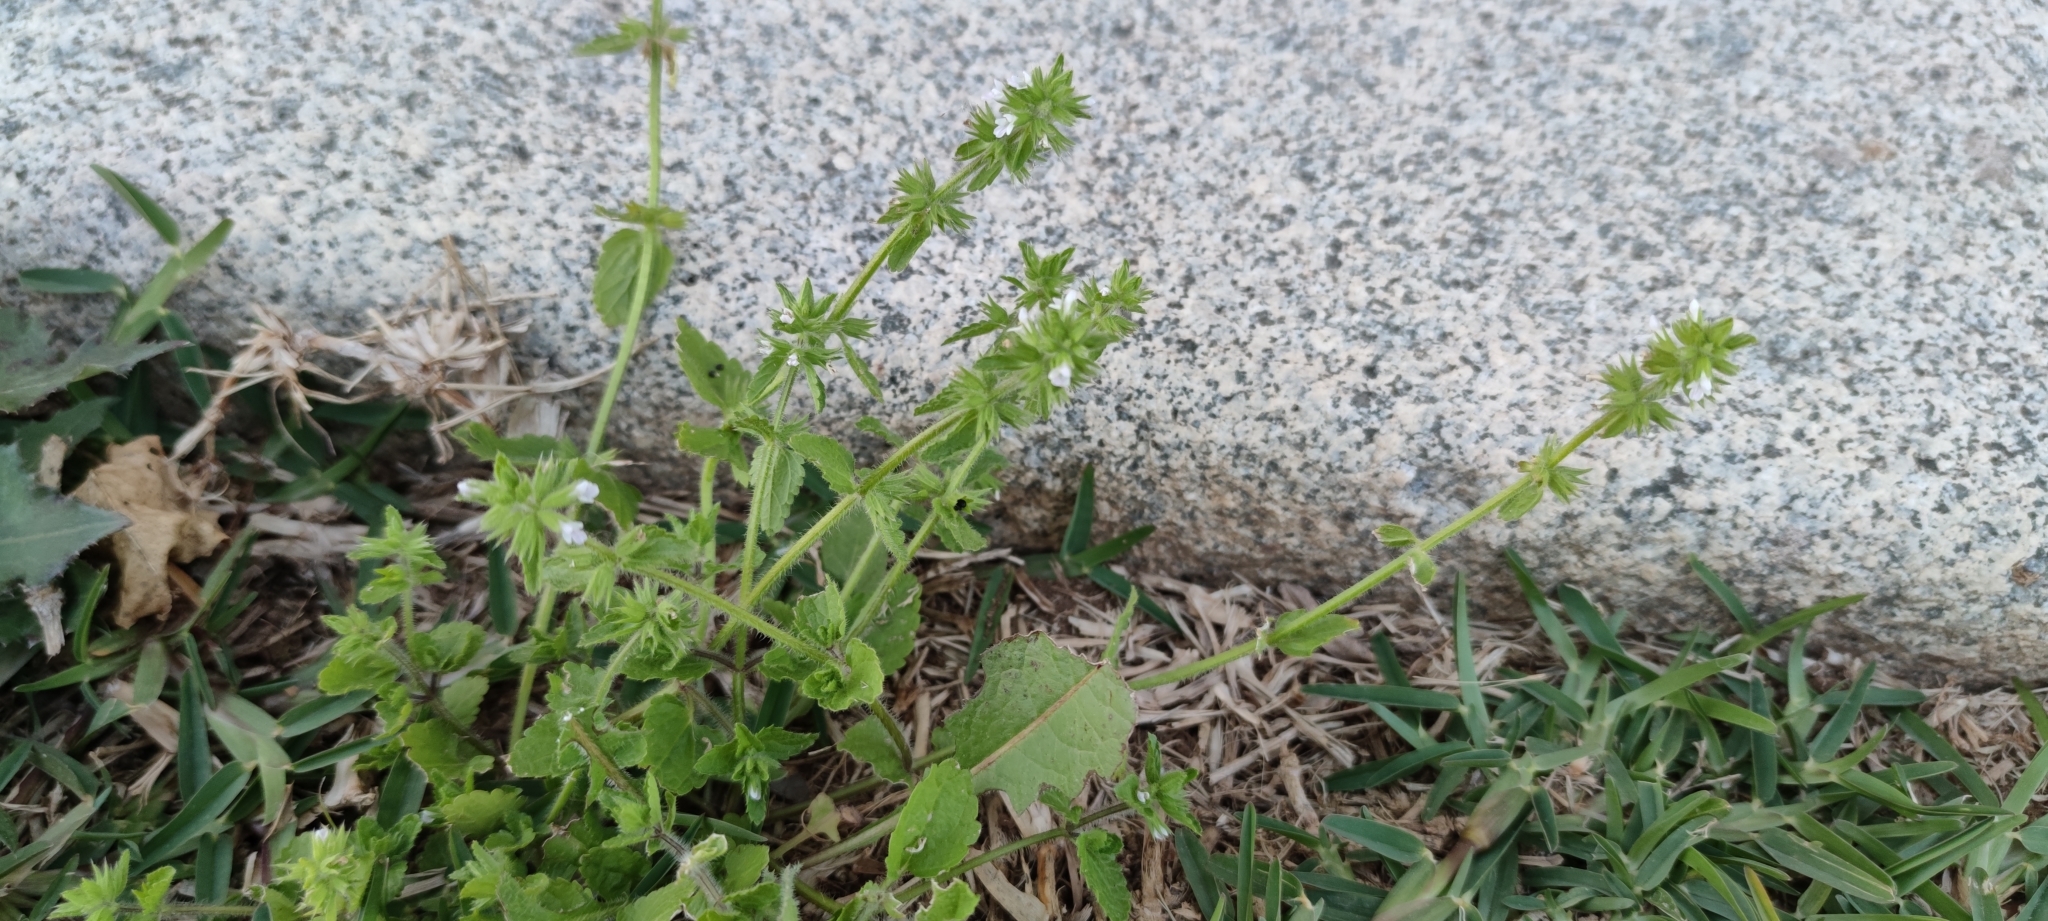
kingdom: Plantae
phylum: Tracheophyta
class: Magnoliopsida
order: Lamiales
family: Lamiaceae
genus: Stachys
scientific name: Stachys arvensis
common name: Field woundwort
